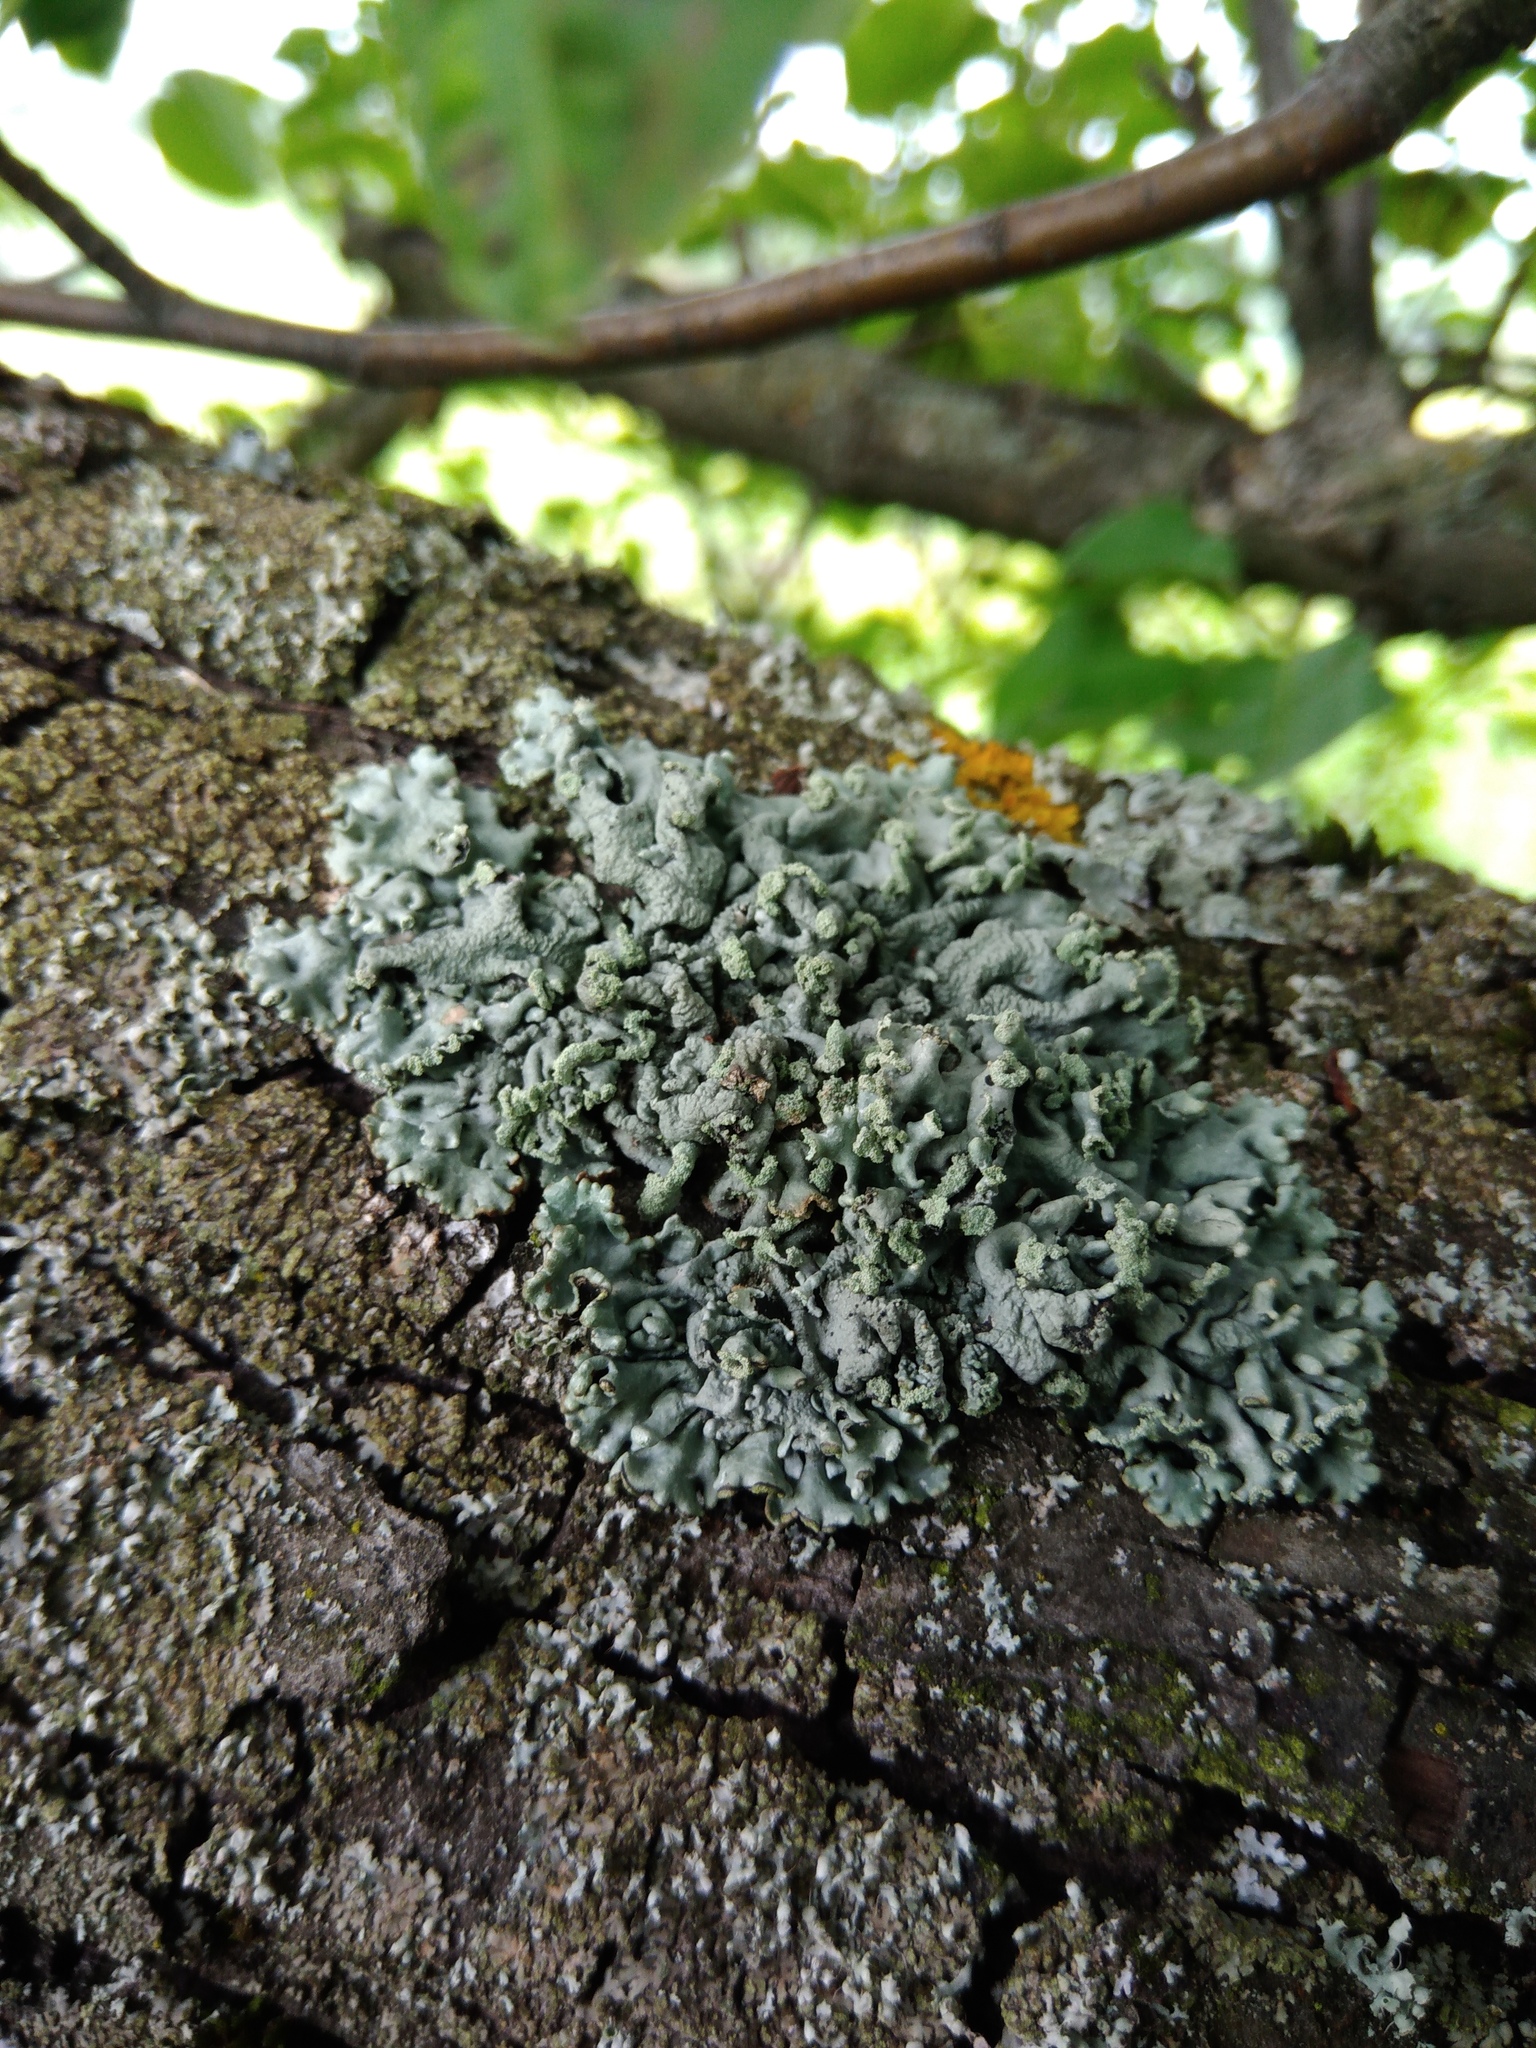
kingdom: Fungi
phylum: Ascomycota
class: Lecanoromycetes
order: Lecanorales
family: Parmeliaceae
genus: Hypogymnia
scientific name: Hypogymnia physodes
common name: Dark crottle
